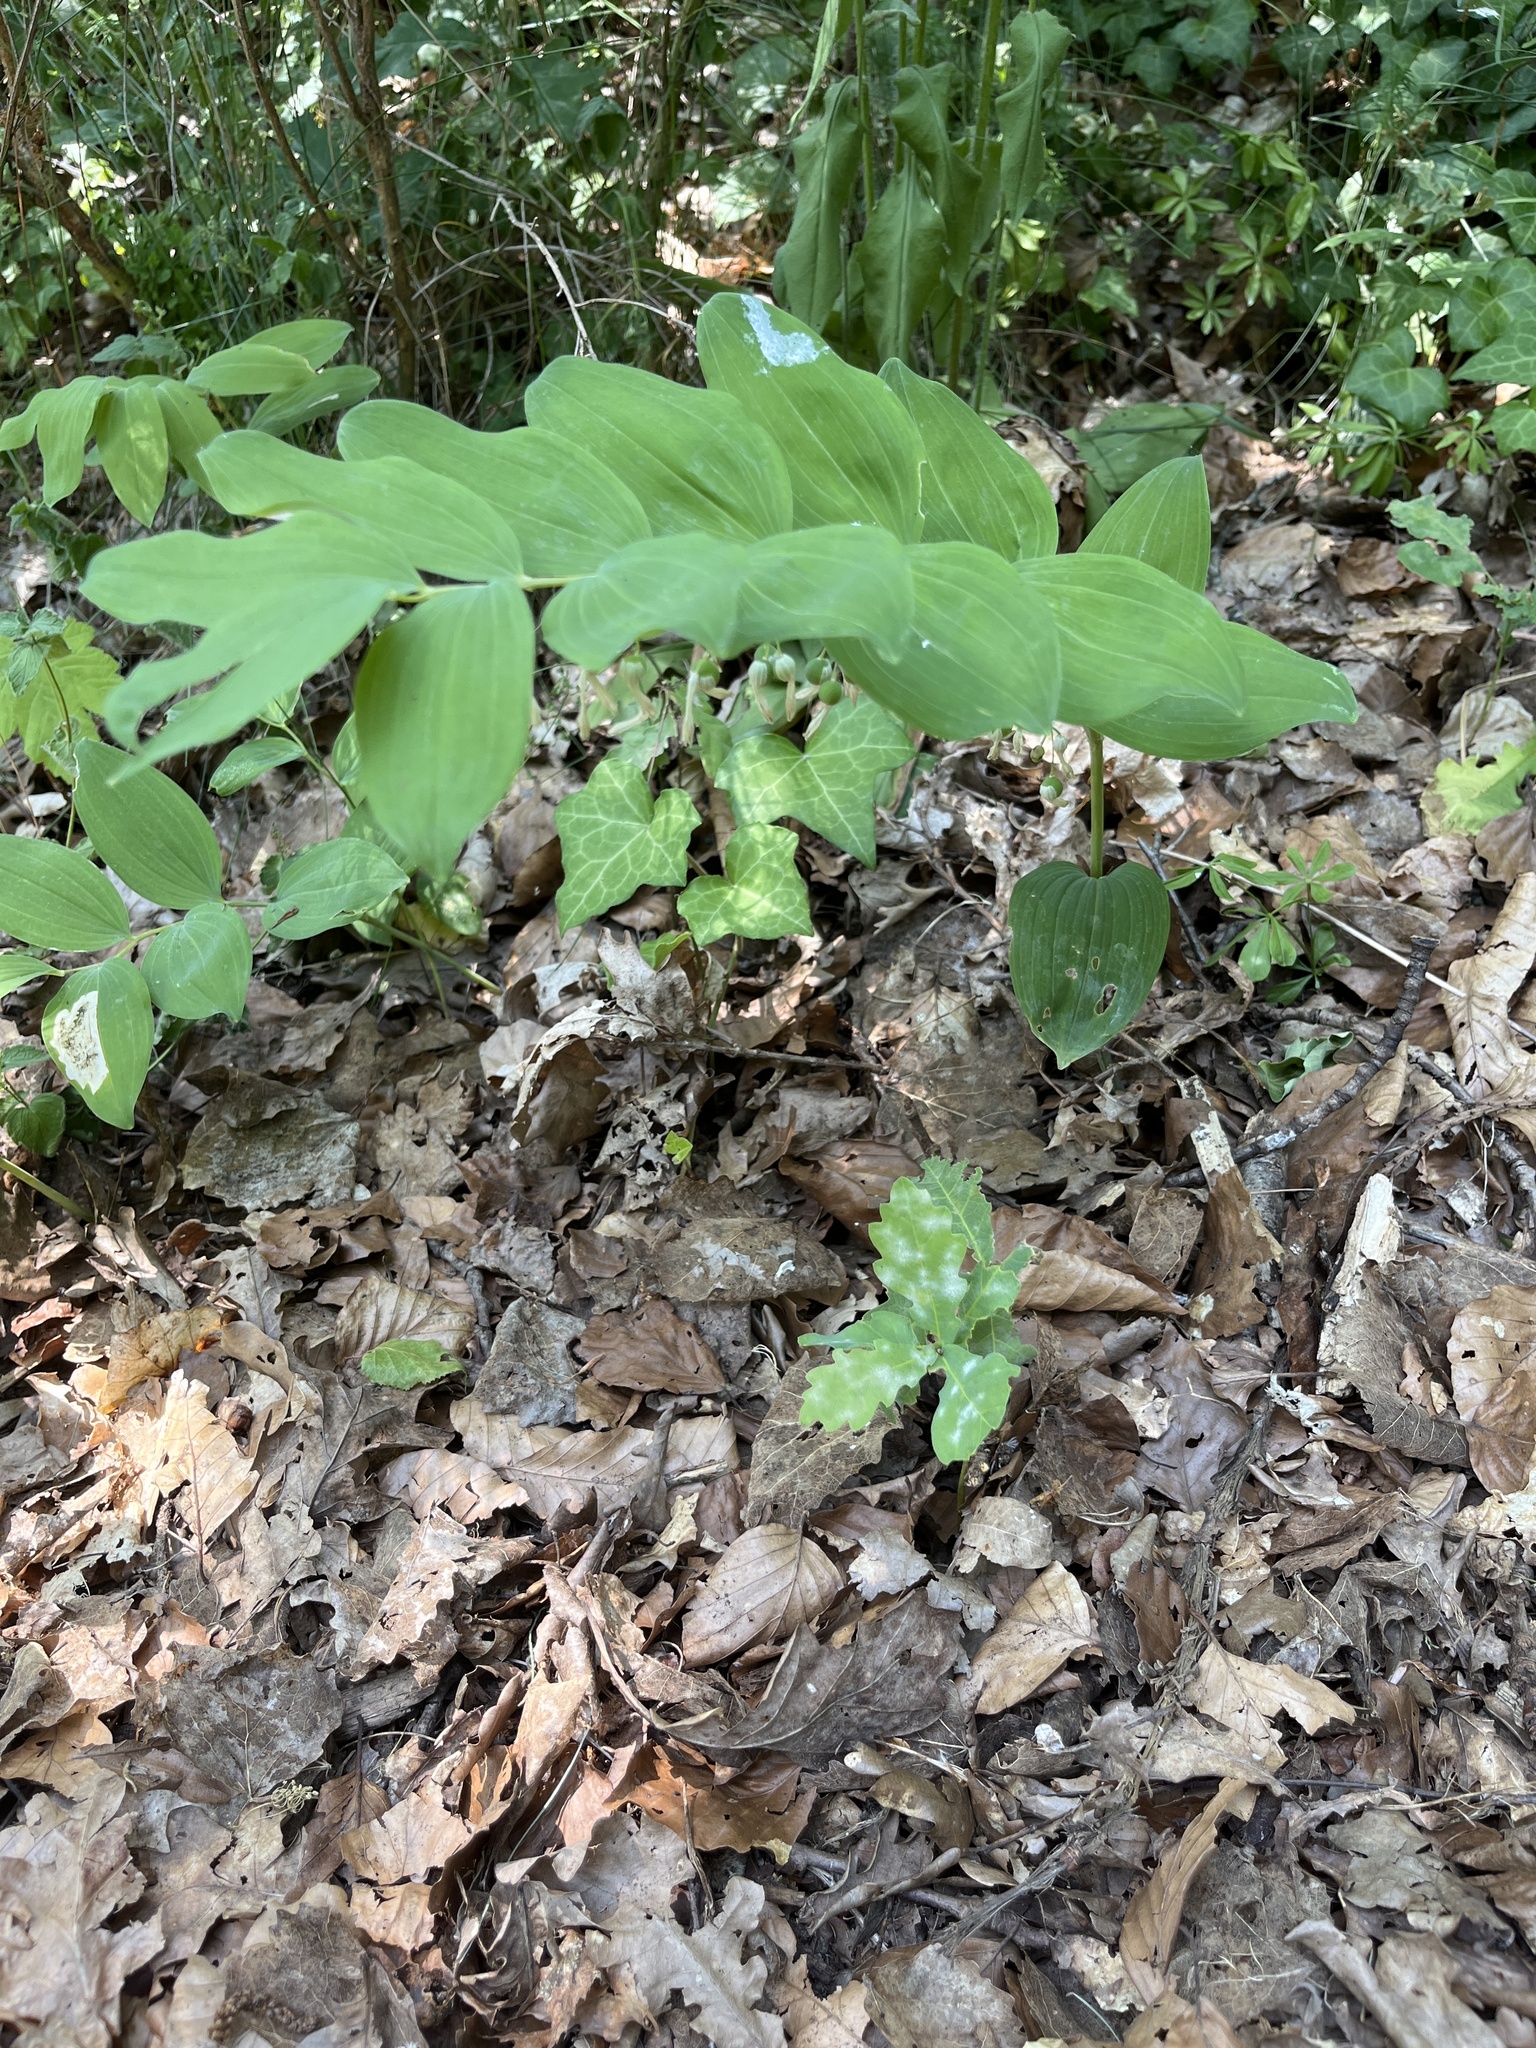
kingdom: Plantae
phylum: Tracheophyta
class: Liliopsida
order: Asparagales
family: Asparagaceae
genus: Polygonatum
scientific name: Polygonatum multiflorum
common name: Solomon's-seal
